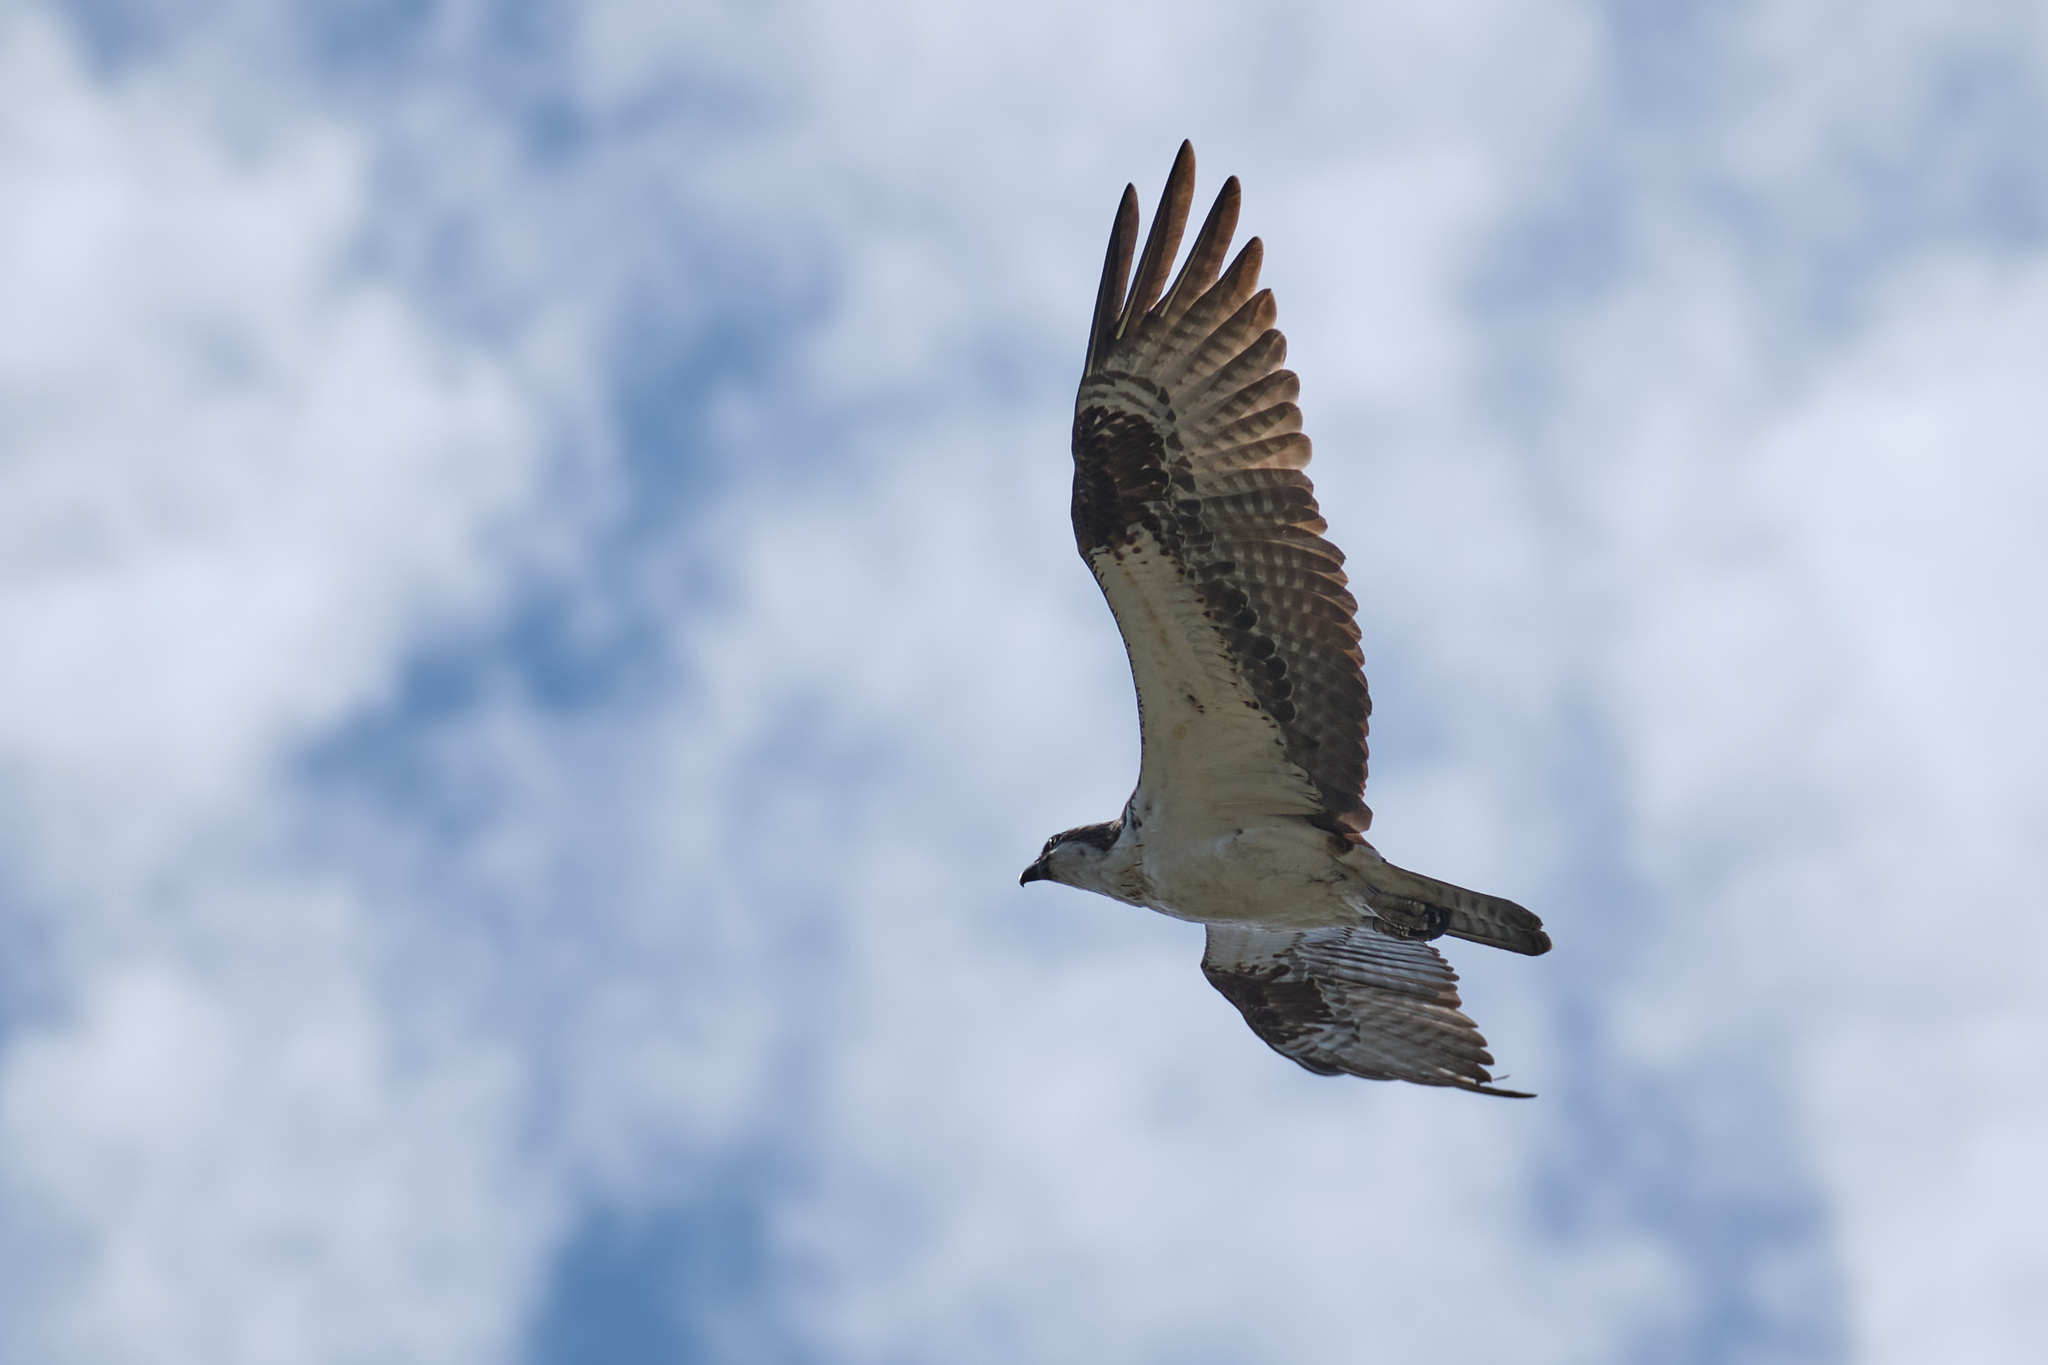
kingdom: Animalia
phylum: Chordata
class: Aves
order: Accipitriformes
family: Pandionidae
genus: Pandion
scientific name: Pandion haliaetus
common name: Osprey
